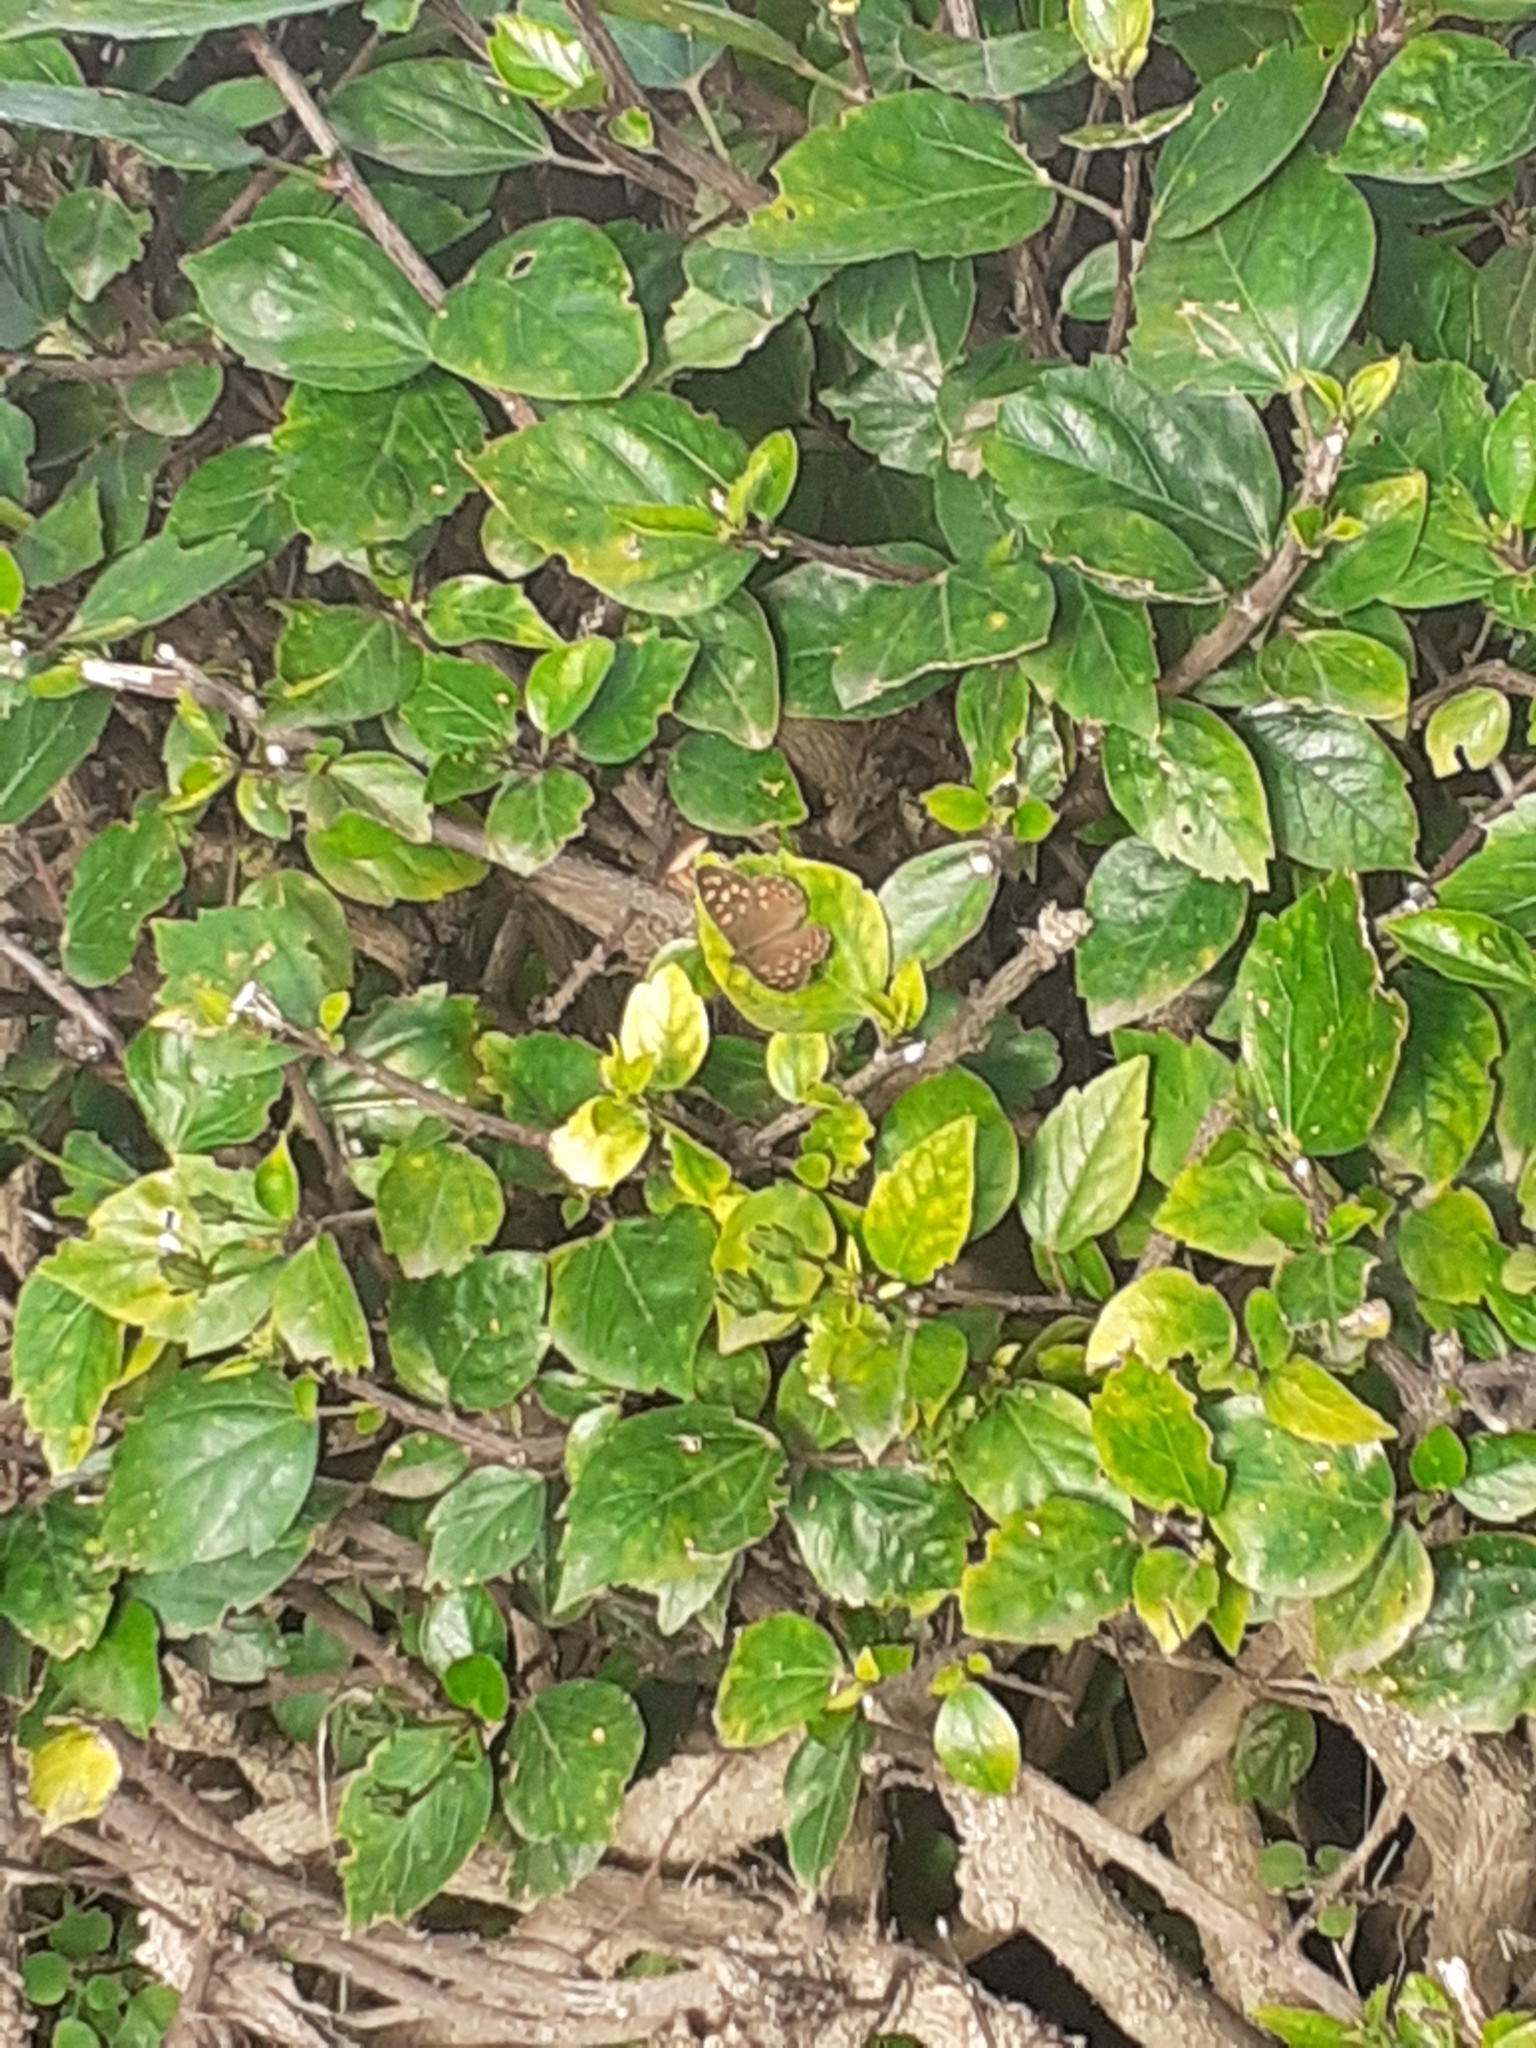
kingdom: Animalia
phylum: Arthropoda
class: Insecta
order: Lepidoptera
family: Nymphalidae
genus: Pararge
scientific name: Pararge aegeria
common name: Speckled wood
